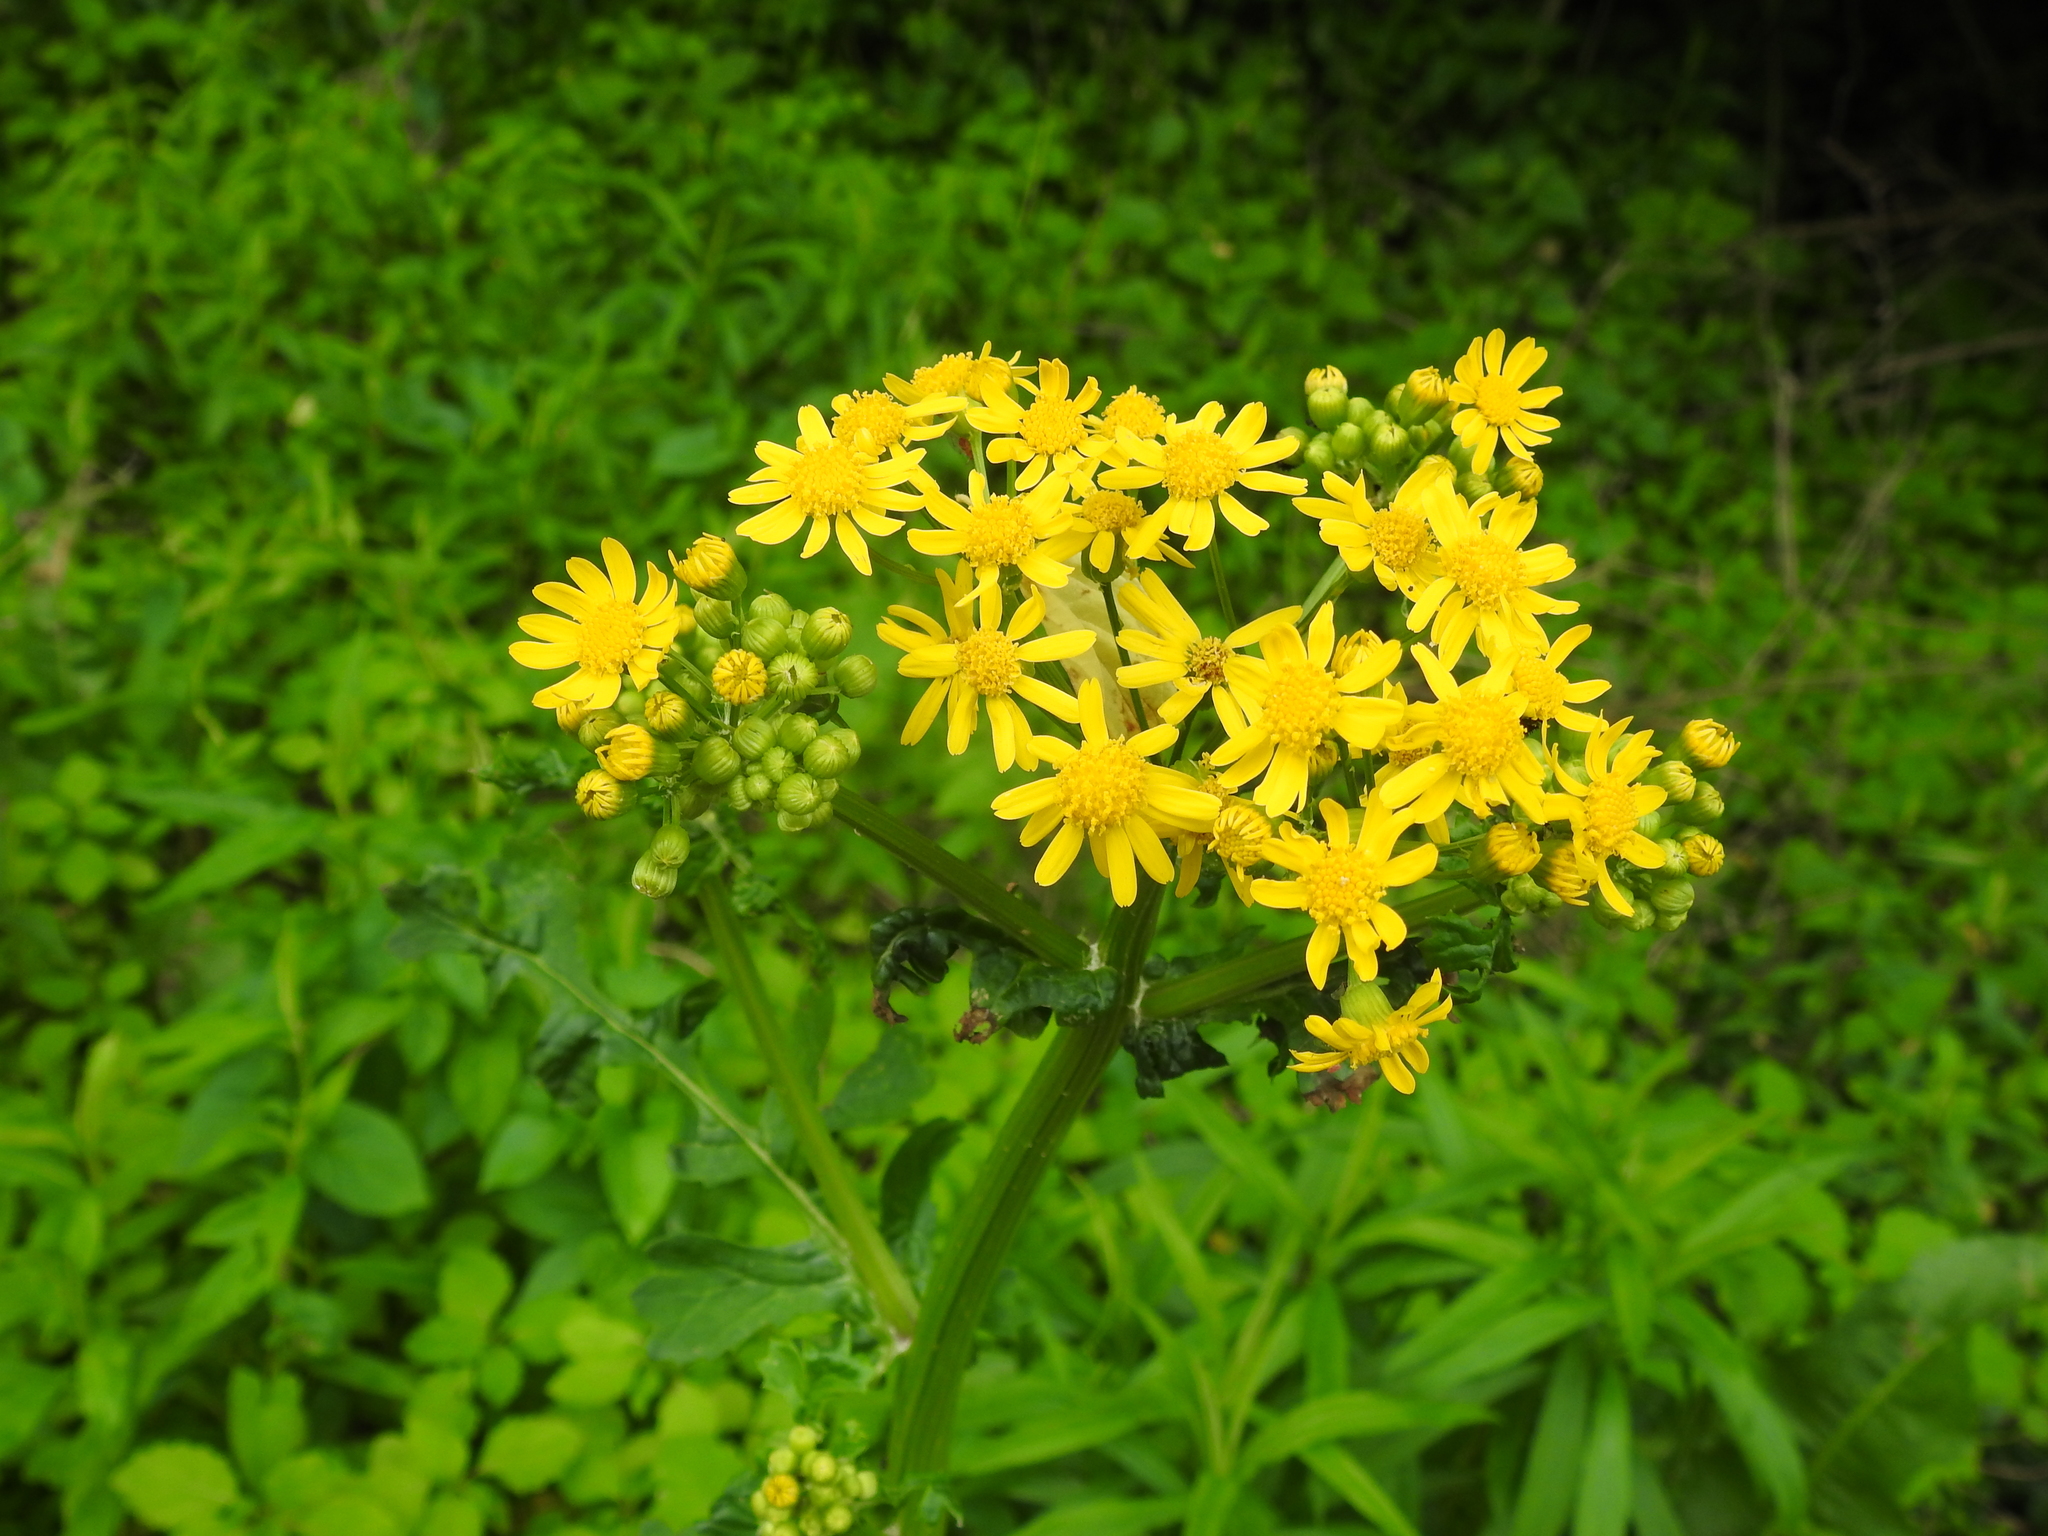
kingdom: Plantae
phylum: Tracheophyta
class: Magnoliopsida
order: Asterales
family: Asteraceae
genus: Packera
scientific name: Packera glabella
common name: Butterweed
